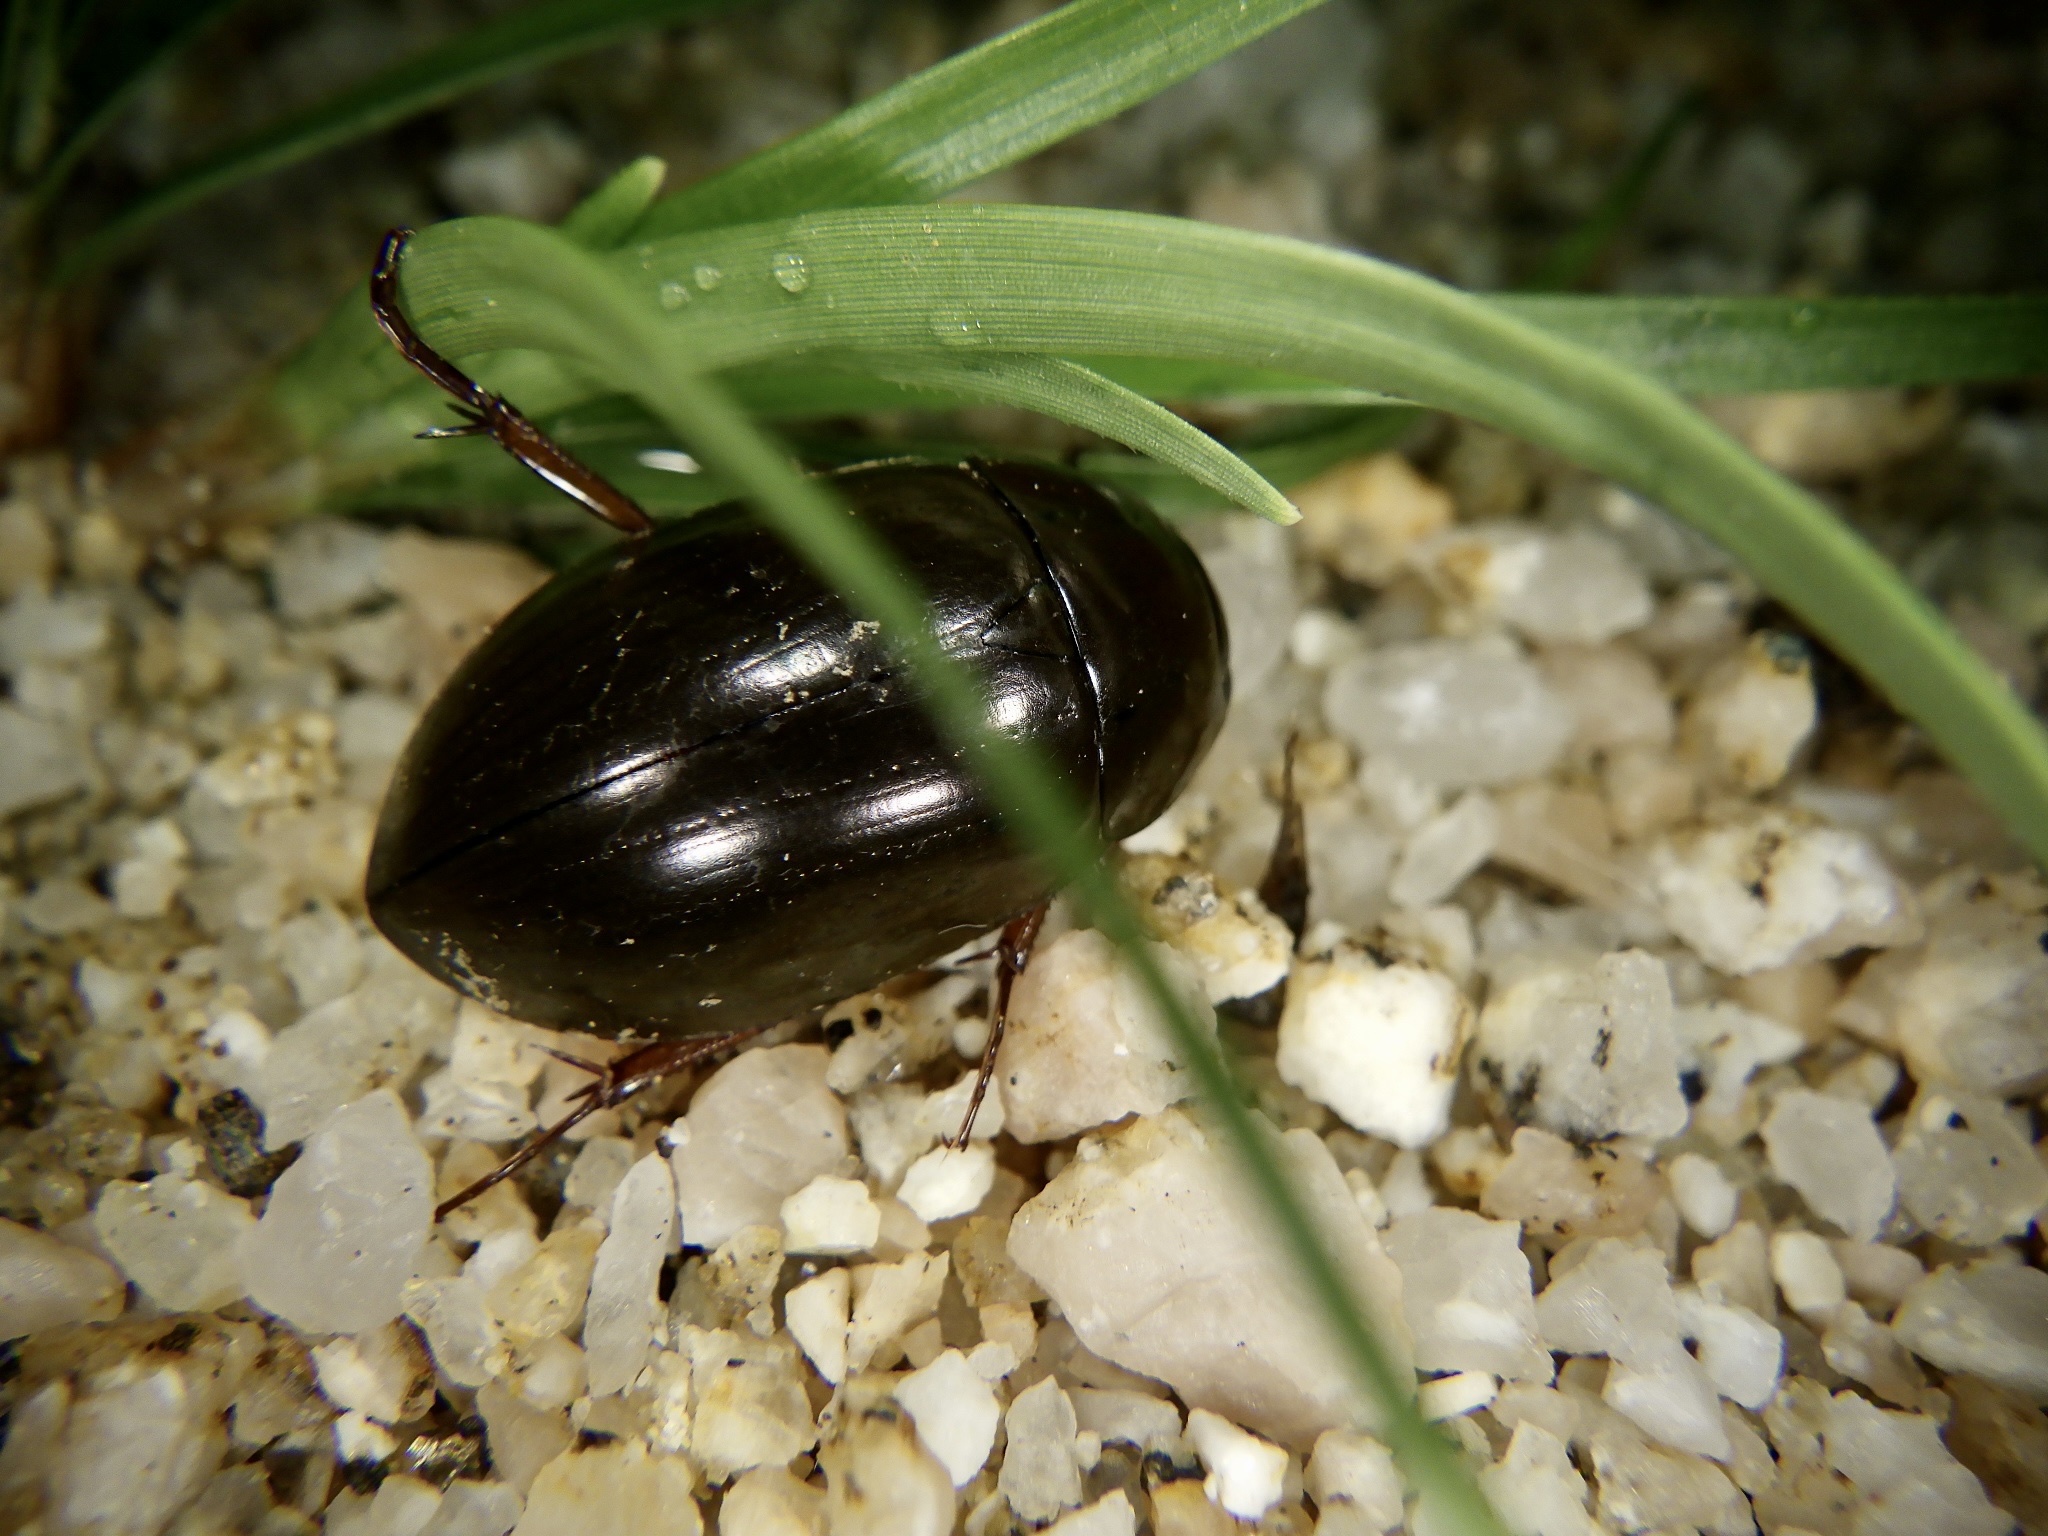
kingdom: Animalia
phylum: Arthropoda
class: Insecta
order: Coleoptera
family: Hydrophilidae
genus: Sternolophus
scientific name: Sternolophus rufipes
